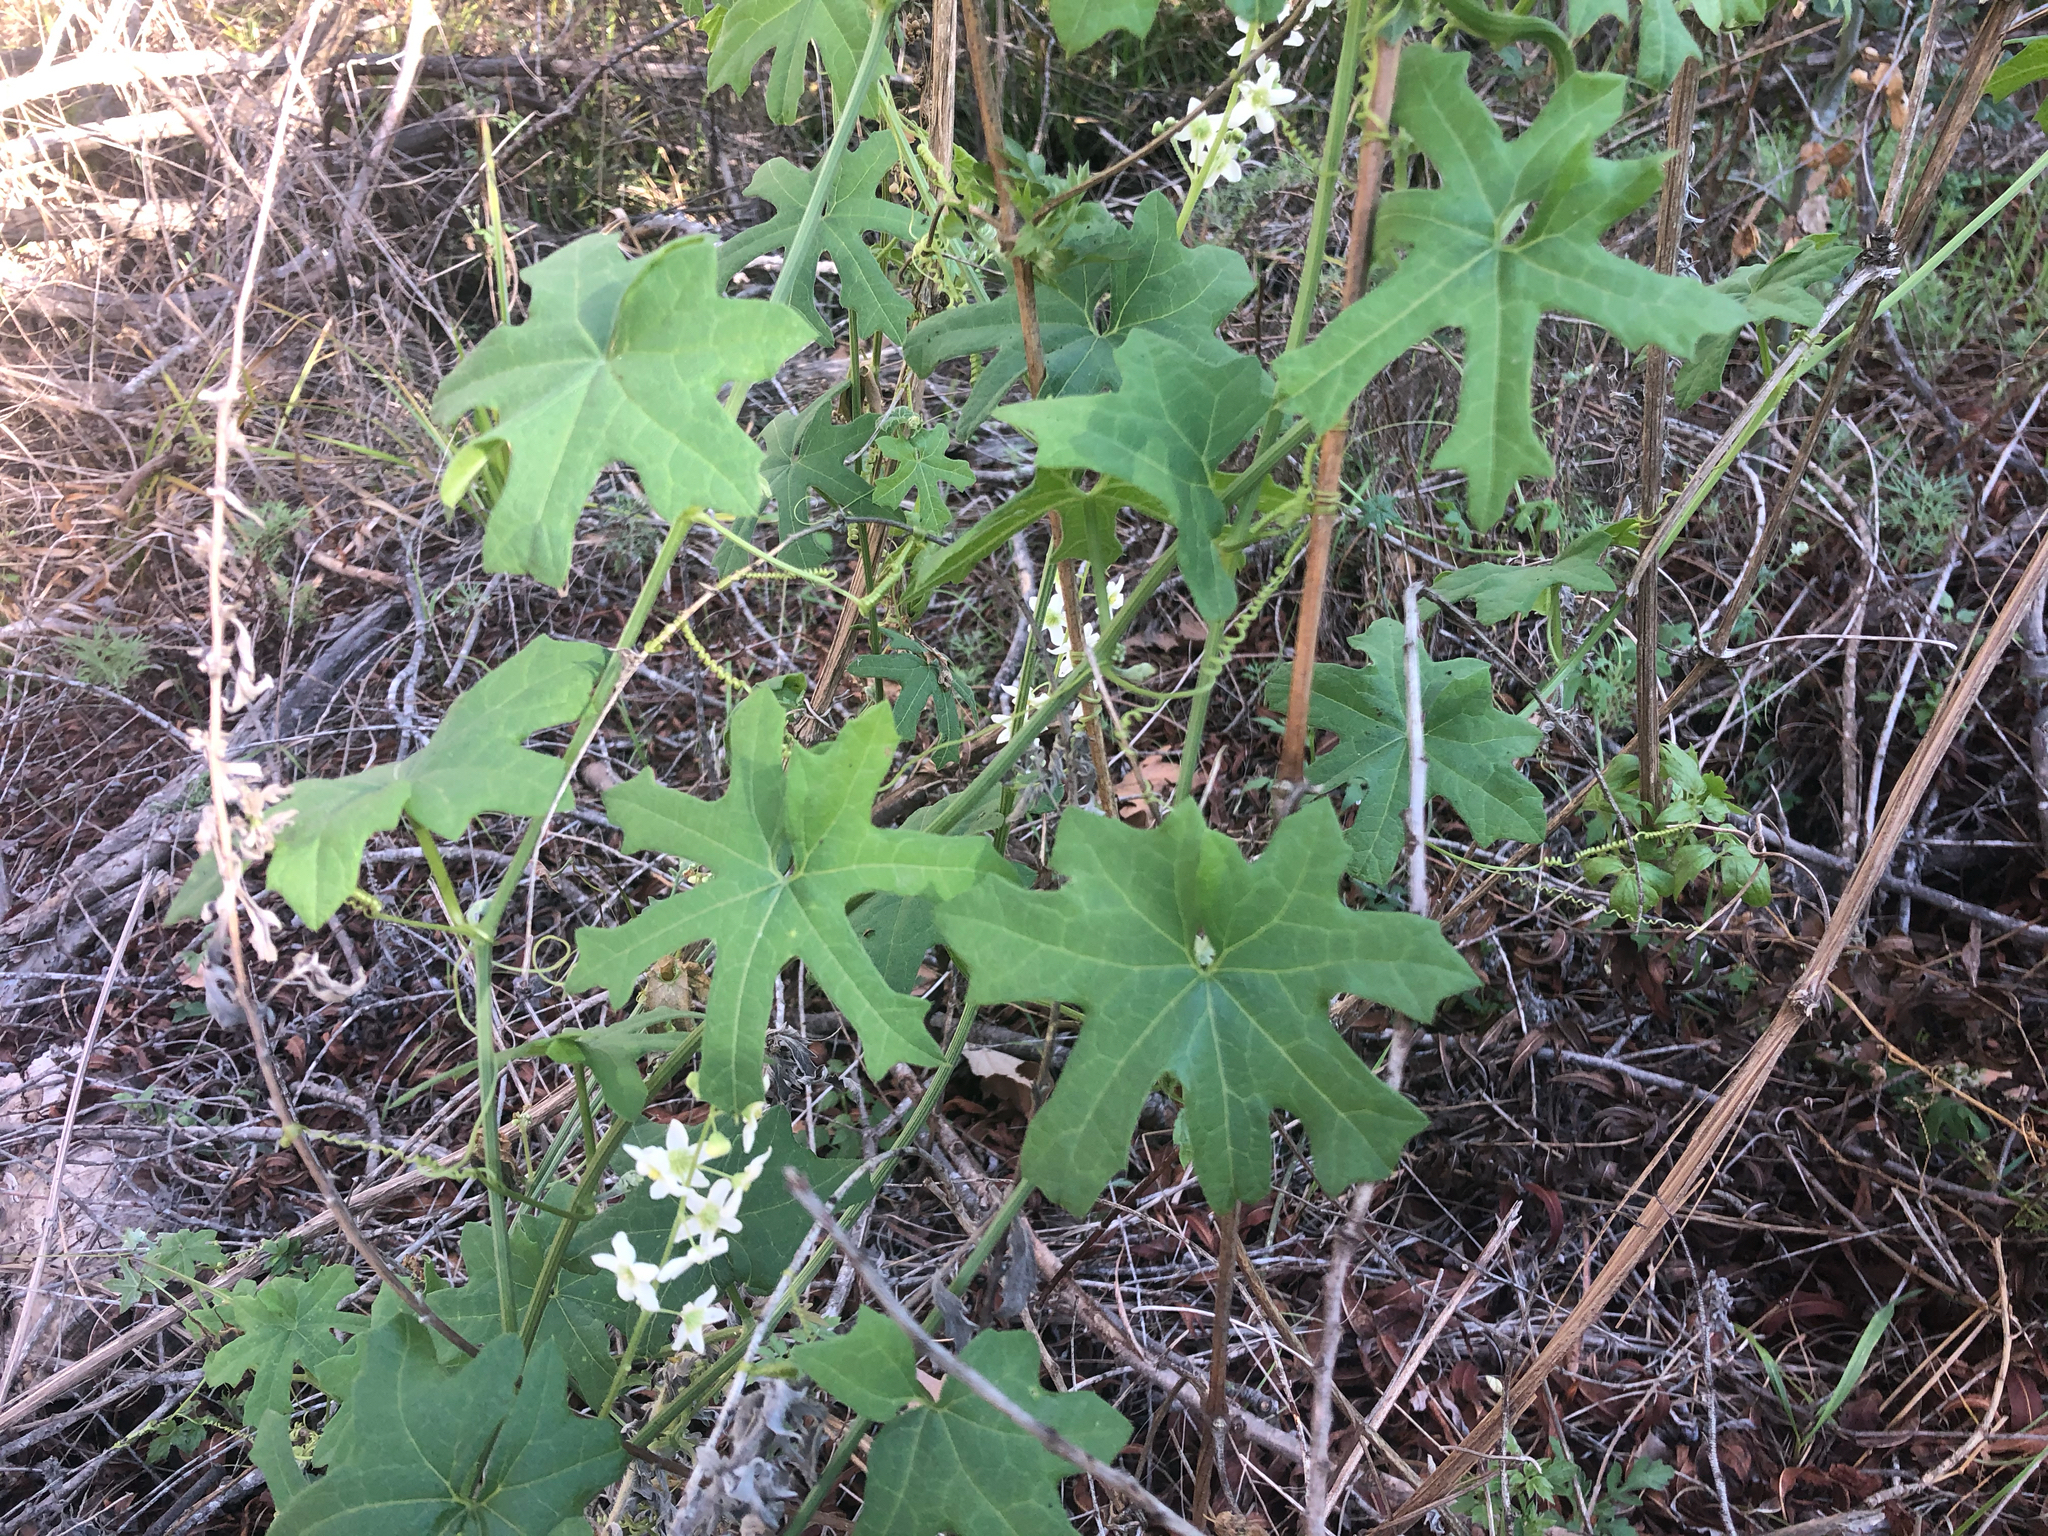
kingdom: Plantae
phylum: Tracheophyta
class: Magnoliopsida
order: Cucurbitales
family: Cucurbitaceae
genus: Marah
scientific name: Marah macrocarpa
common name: Cucamonga manroot
